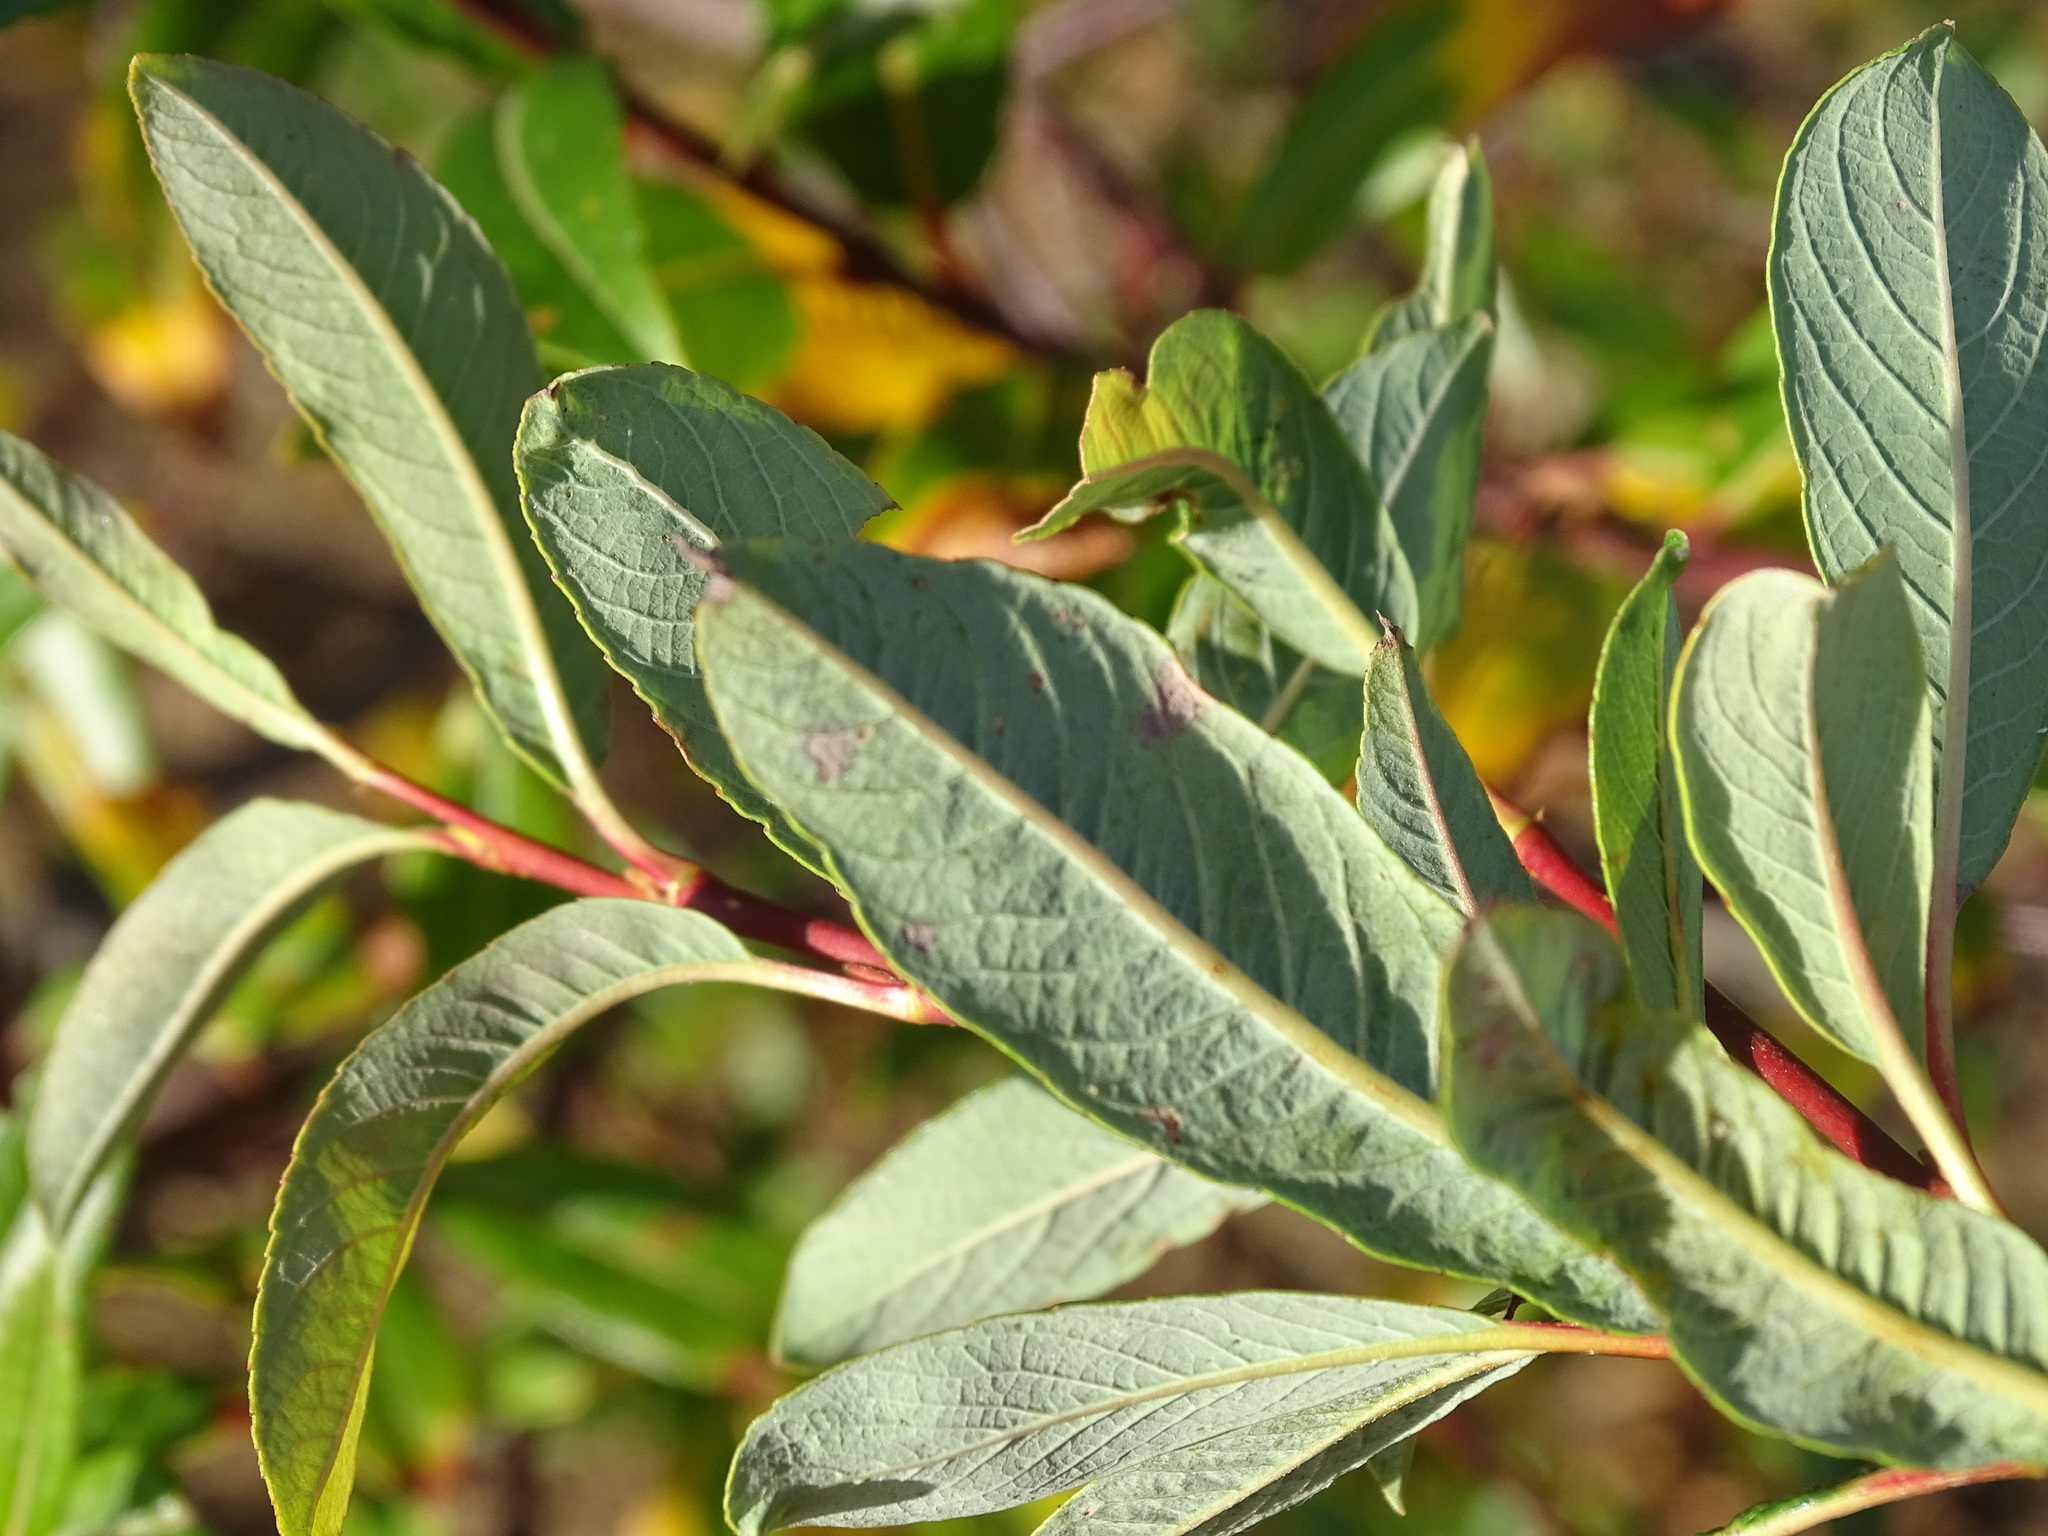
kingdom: Plantae
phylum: Tracheophyta
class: Magnoliopsida
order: Malpighiales
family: Salicaceae
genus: Salix
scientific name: Salix planifolia
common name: Mountain willow
